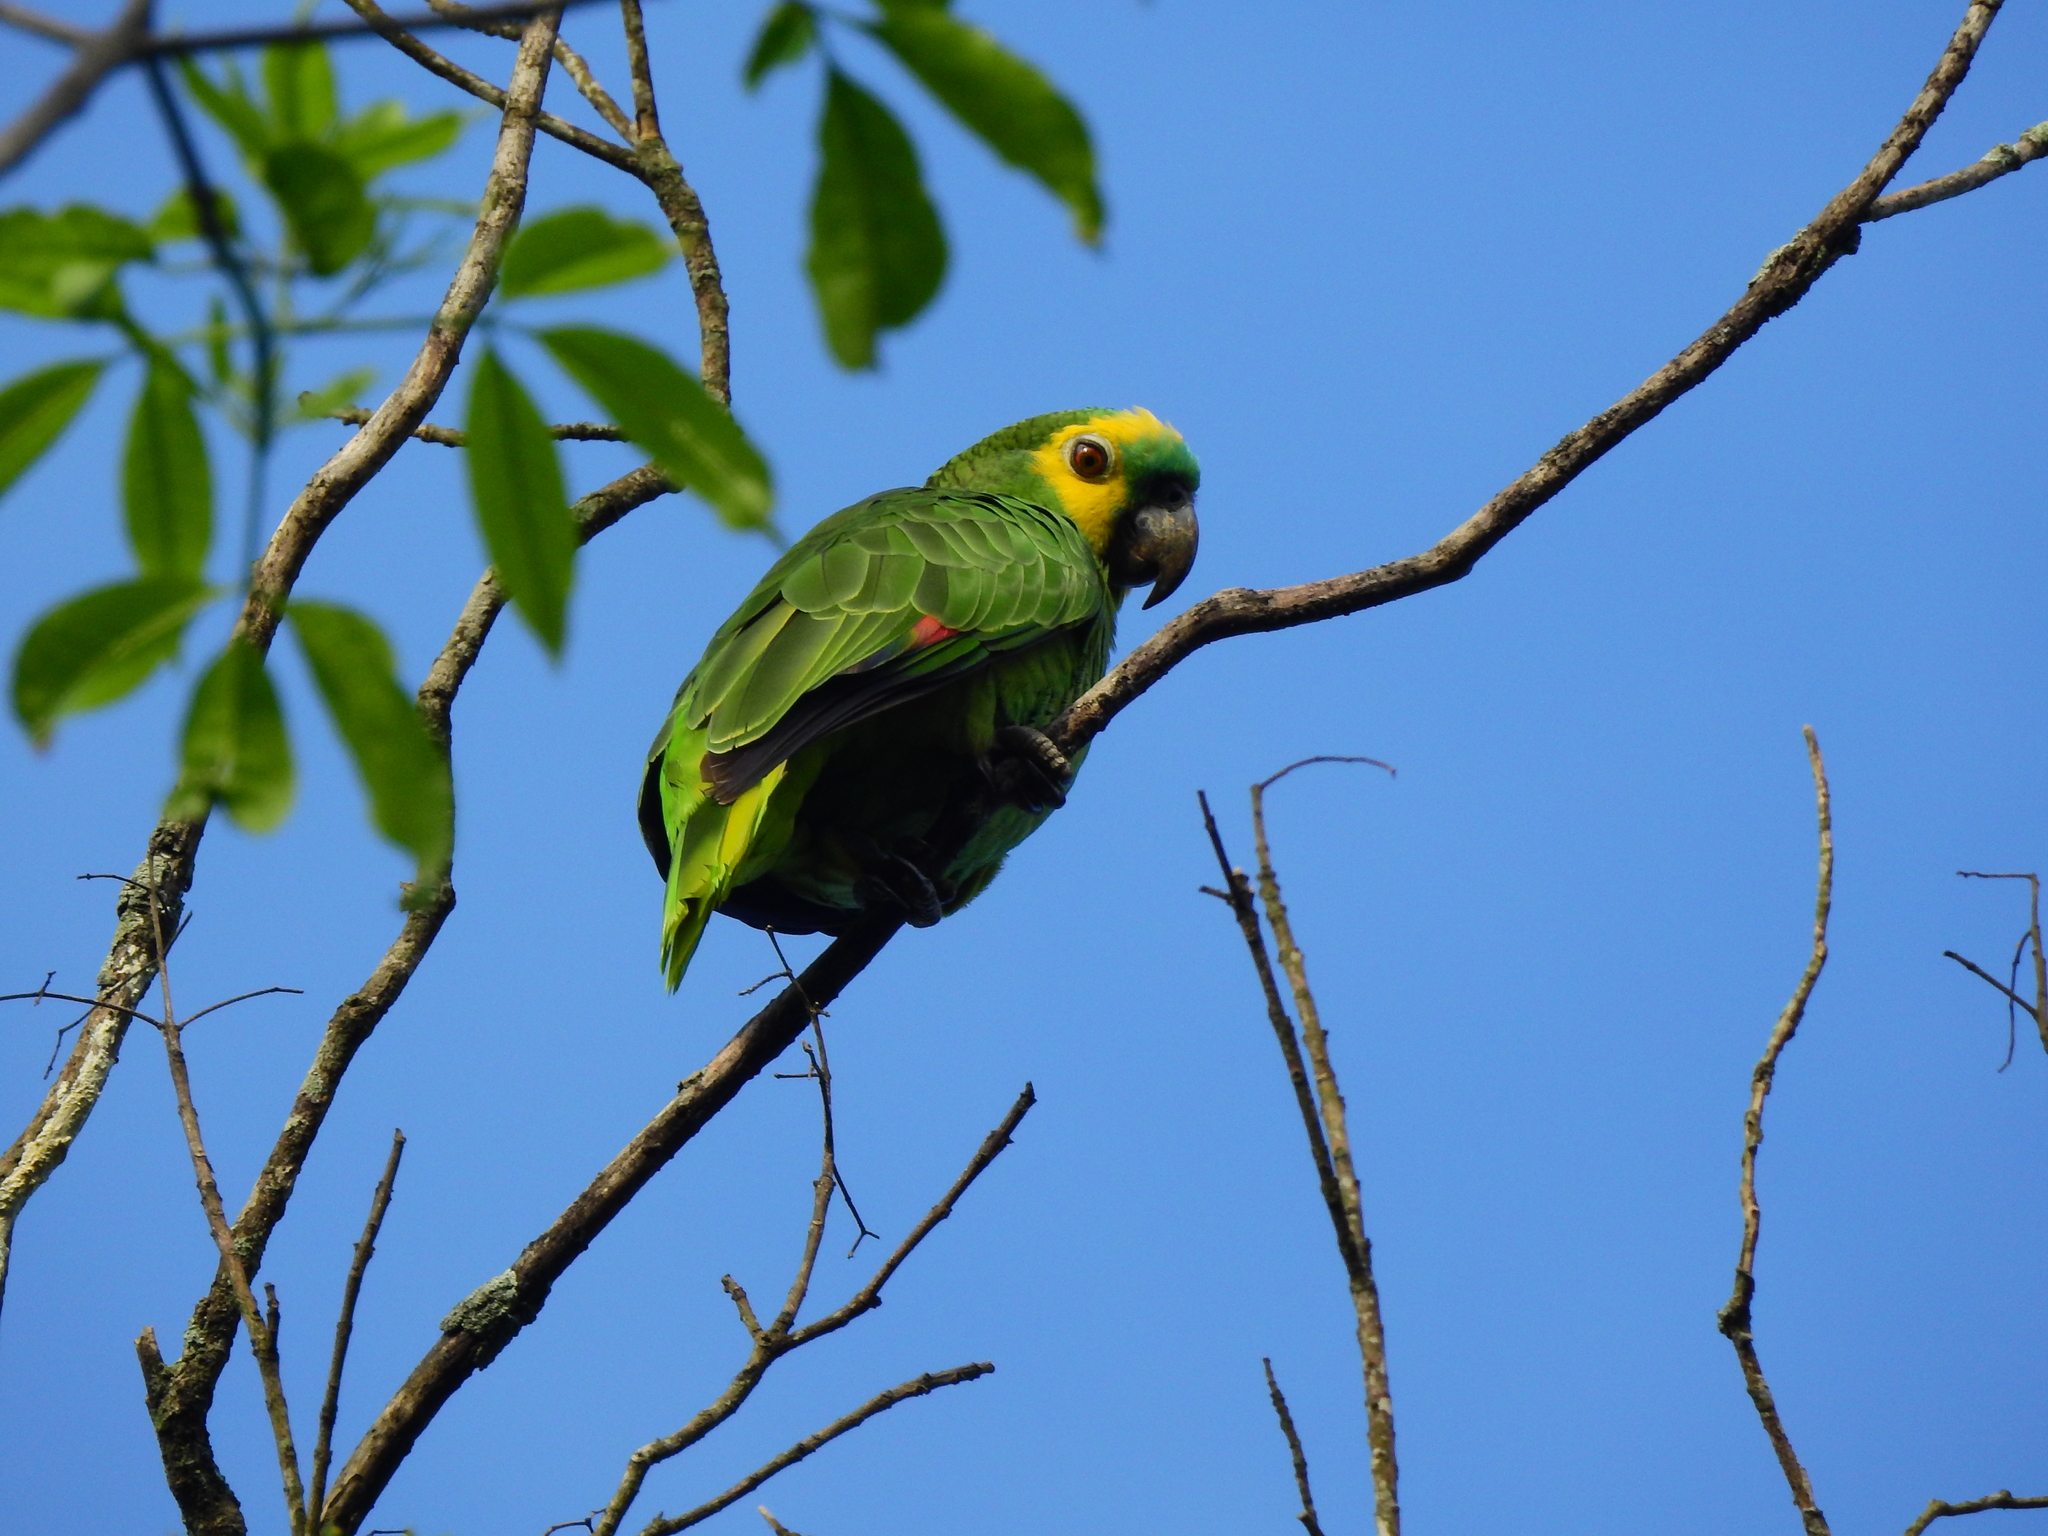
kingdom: Animalia
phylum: Chordata
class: Aves
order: Psittaciformes
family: Psittacidae
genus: Amazona
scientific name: Amazona aestiva
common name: Turquoise-fronted amazon
